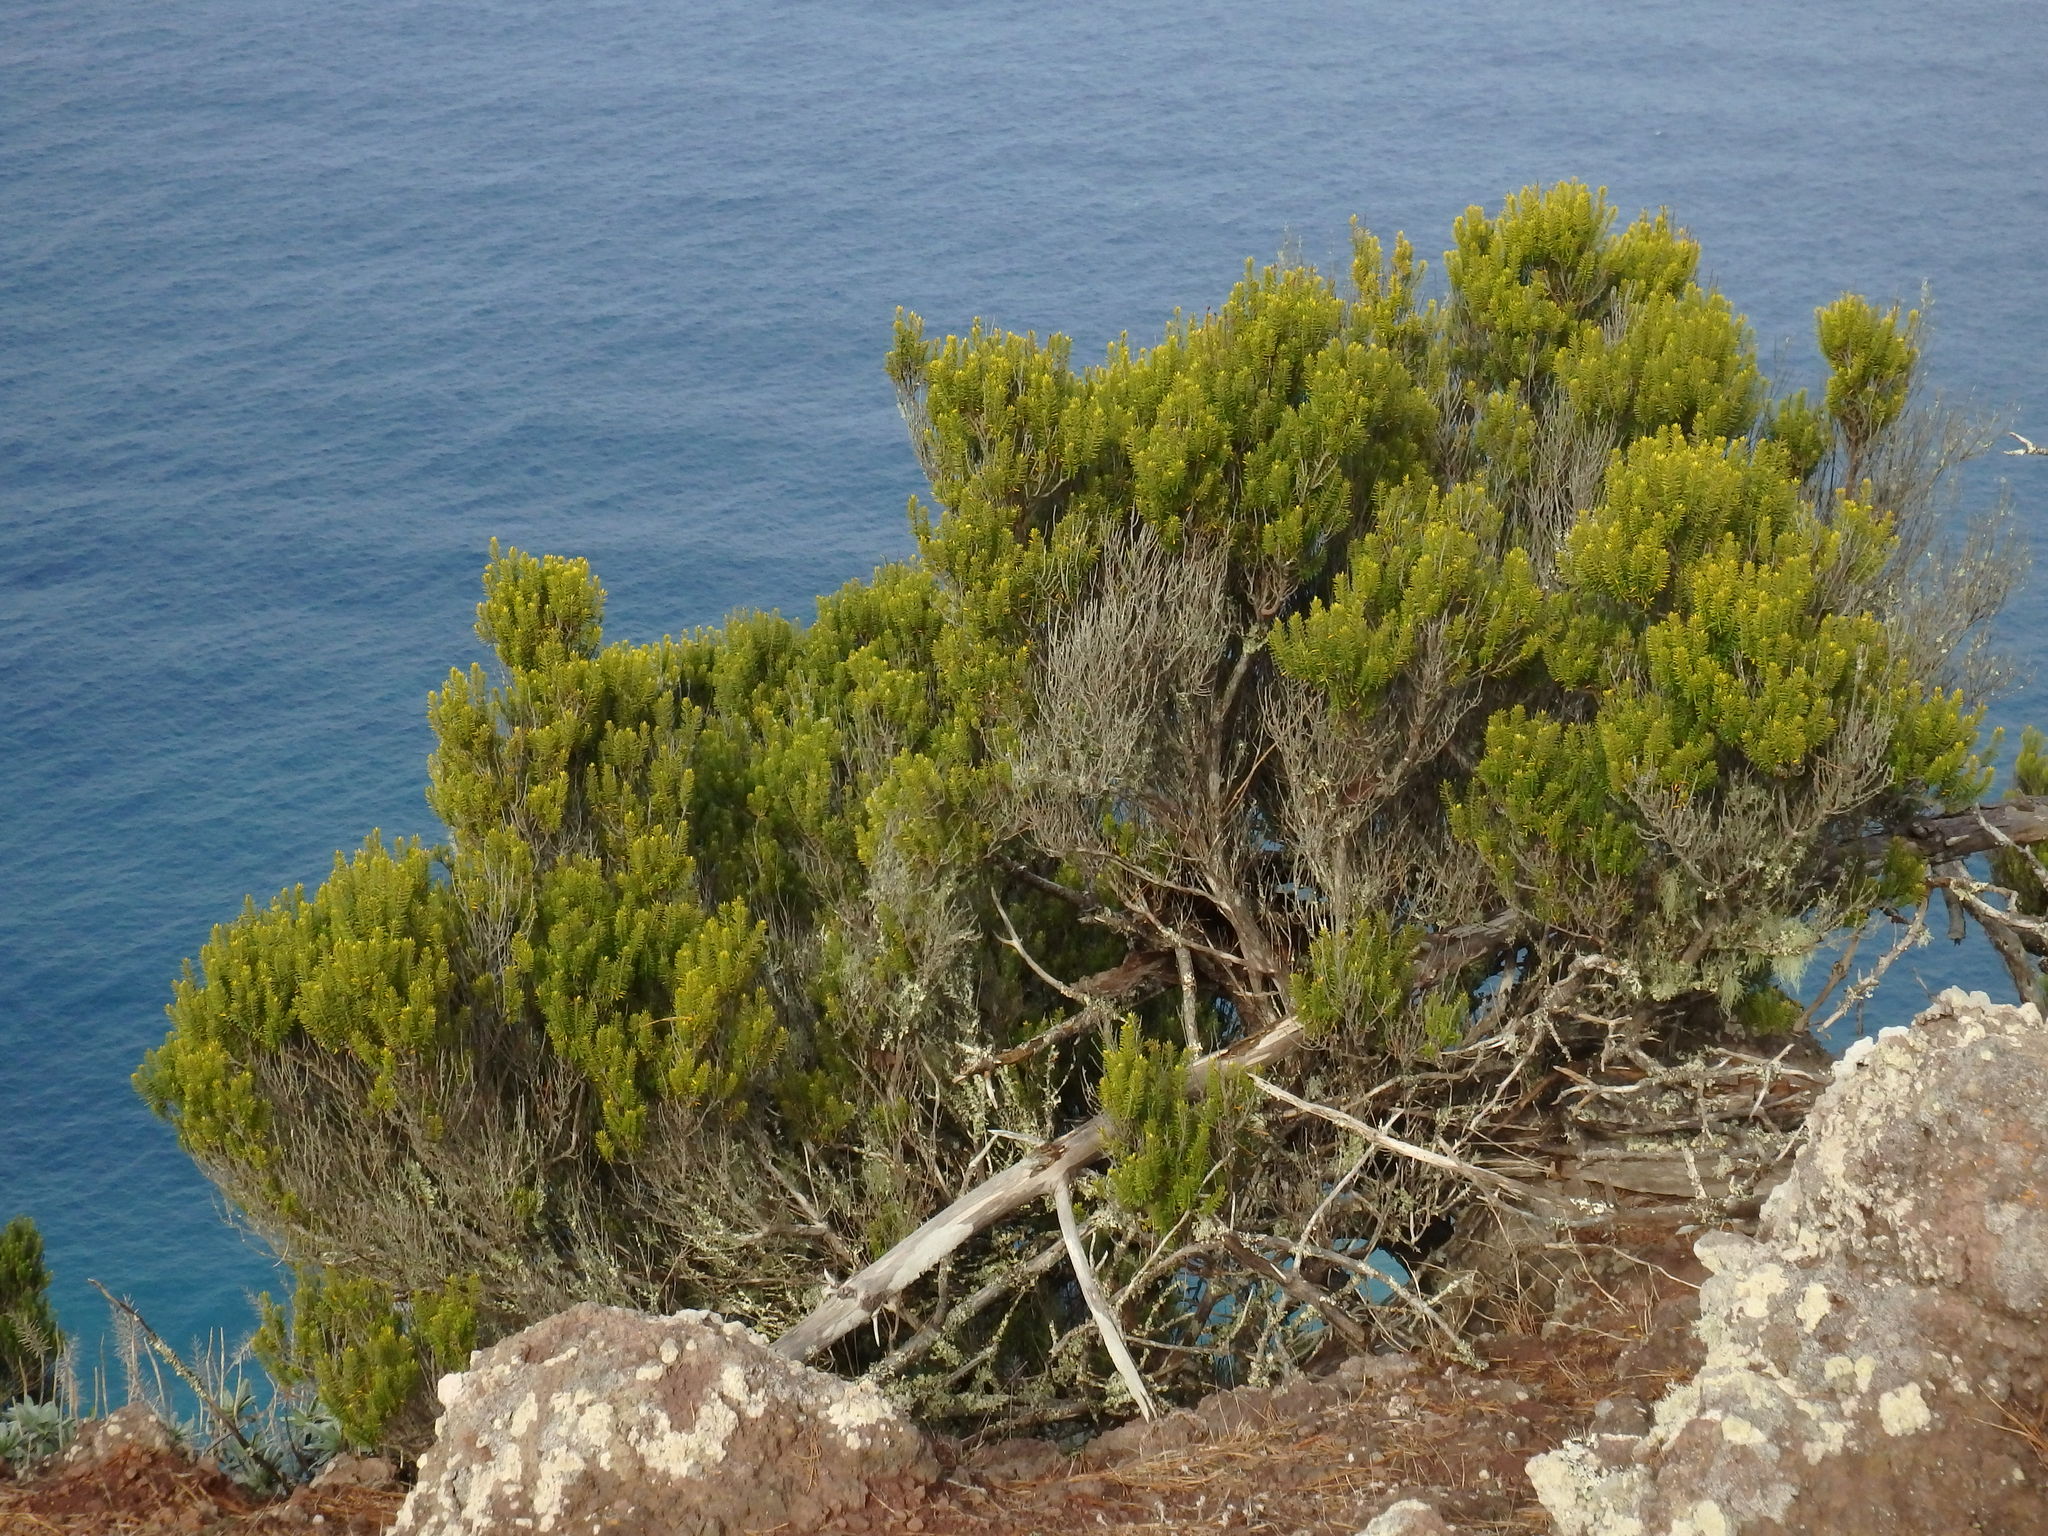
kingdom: Plantae
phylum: Tracheophyta
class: Magnoliopsida
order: Ericales
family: Ericaceae
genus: Erica
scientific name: Erica platycodon
